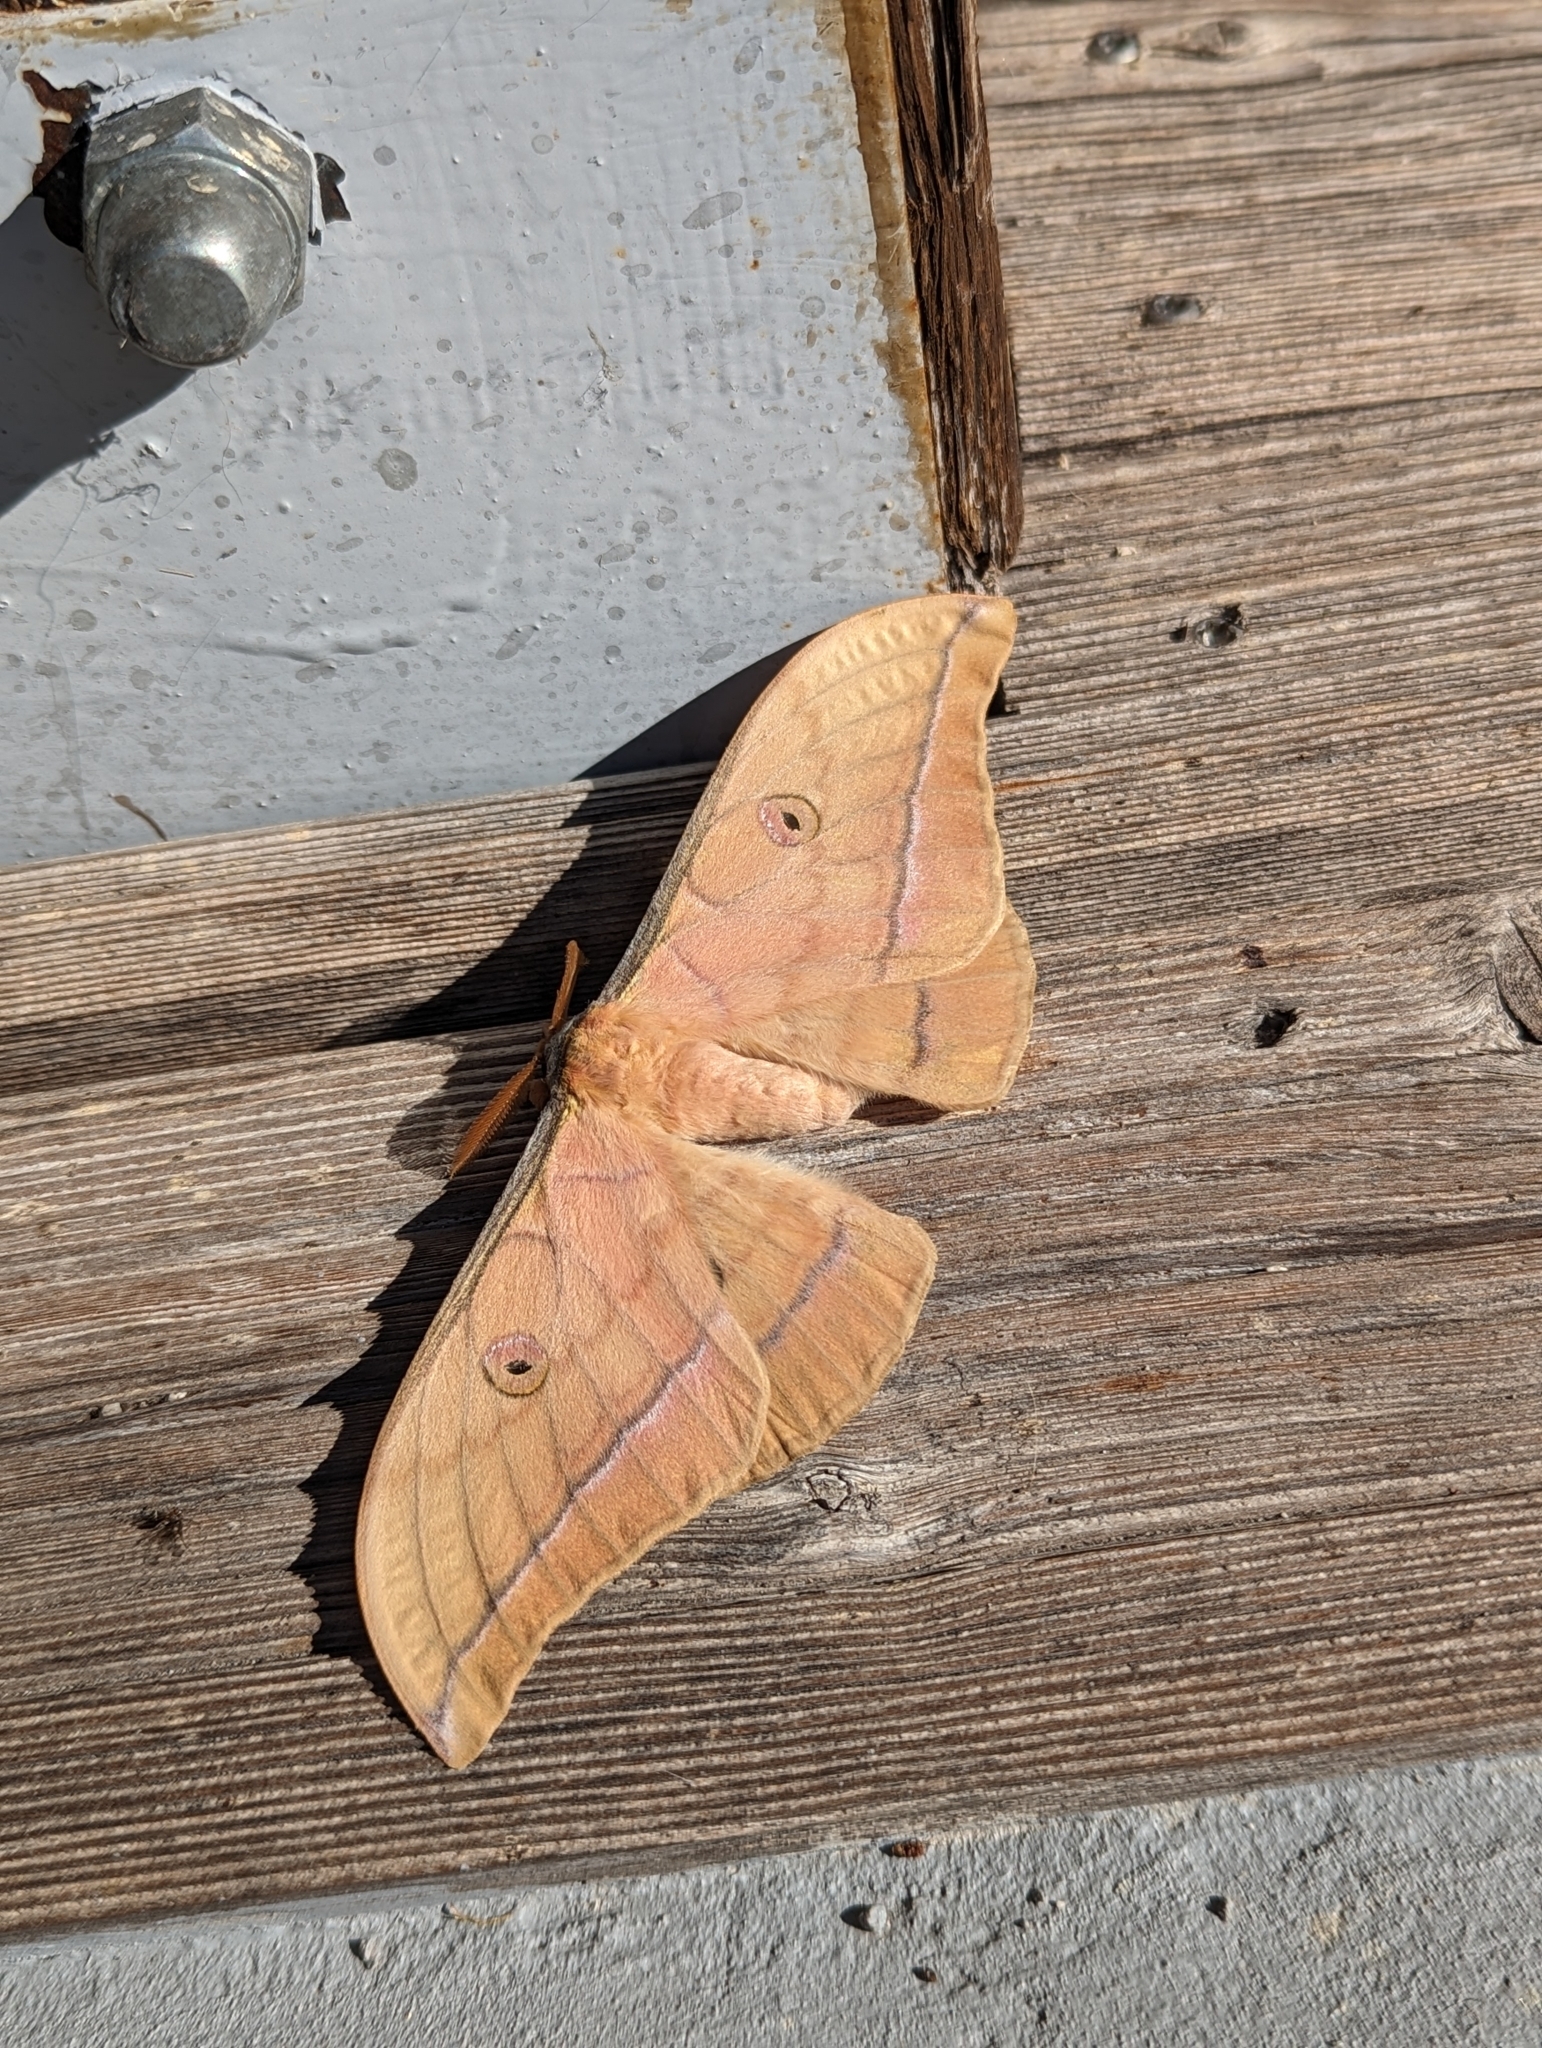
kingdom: Animalia
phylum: Arthropoda
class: Insecta
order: Lepidoptera
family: Saturniidae
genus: Antheraea
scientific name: Antheraea yamamai
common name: Japanese oak silk moth
